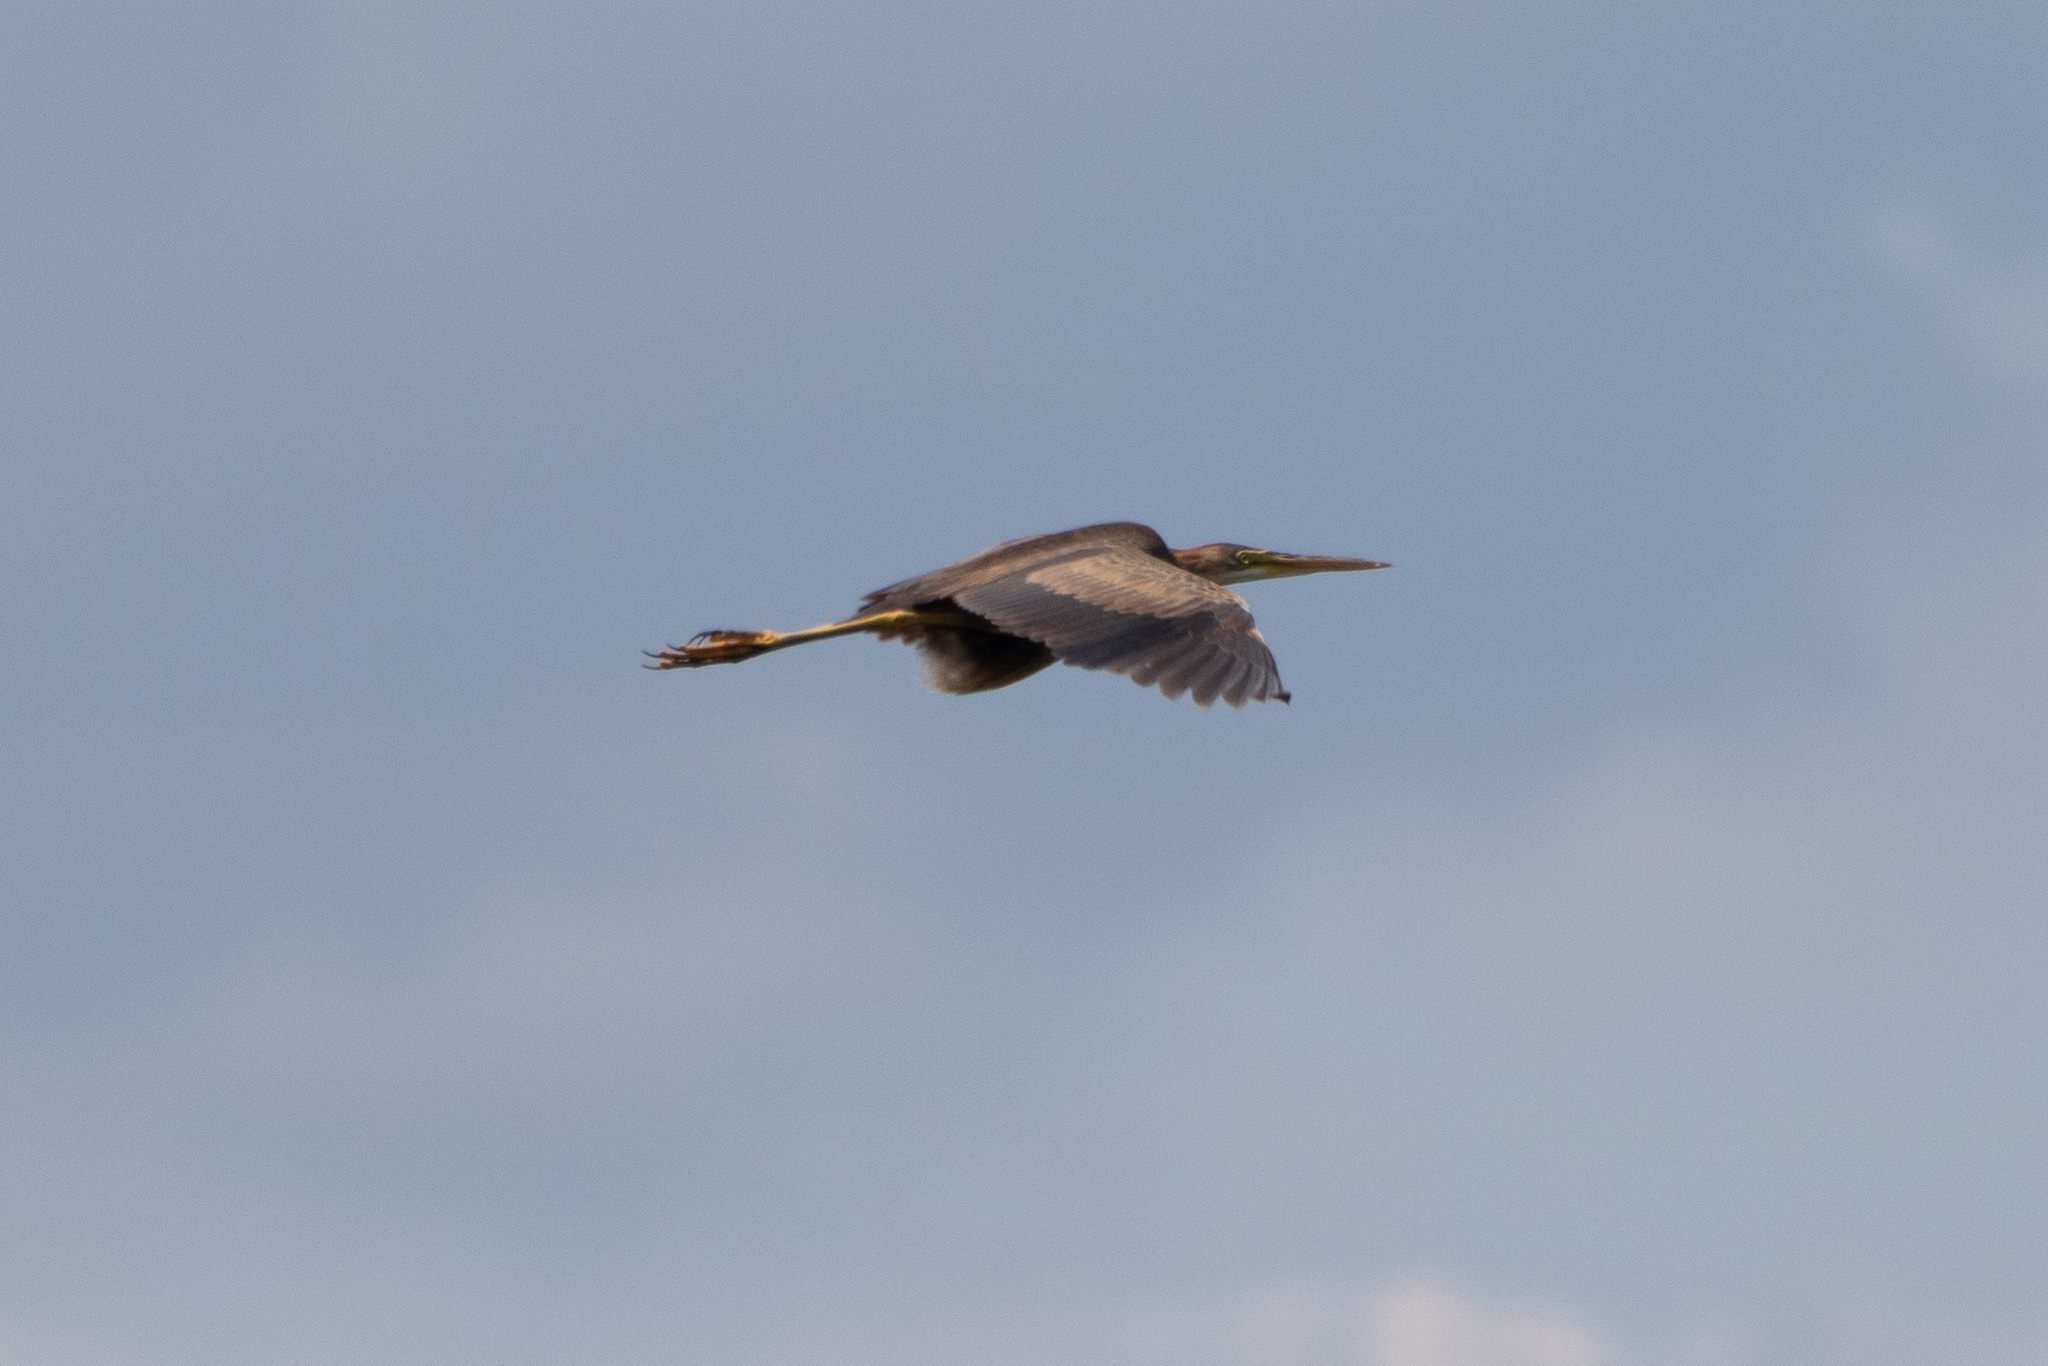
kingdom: Animalia
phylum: Chordata
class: Aves
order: Pelecaniformes
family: Ardeidae
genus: Ardea
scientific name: Ardea purpurea
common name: Purple heron
